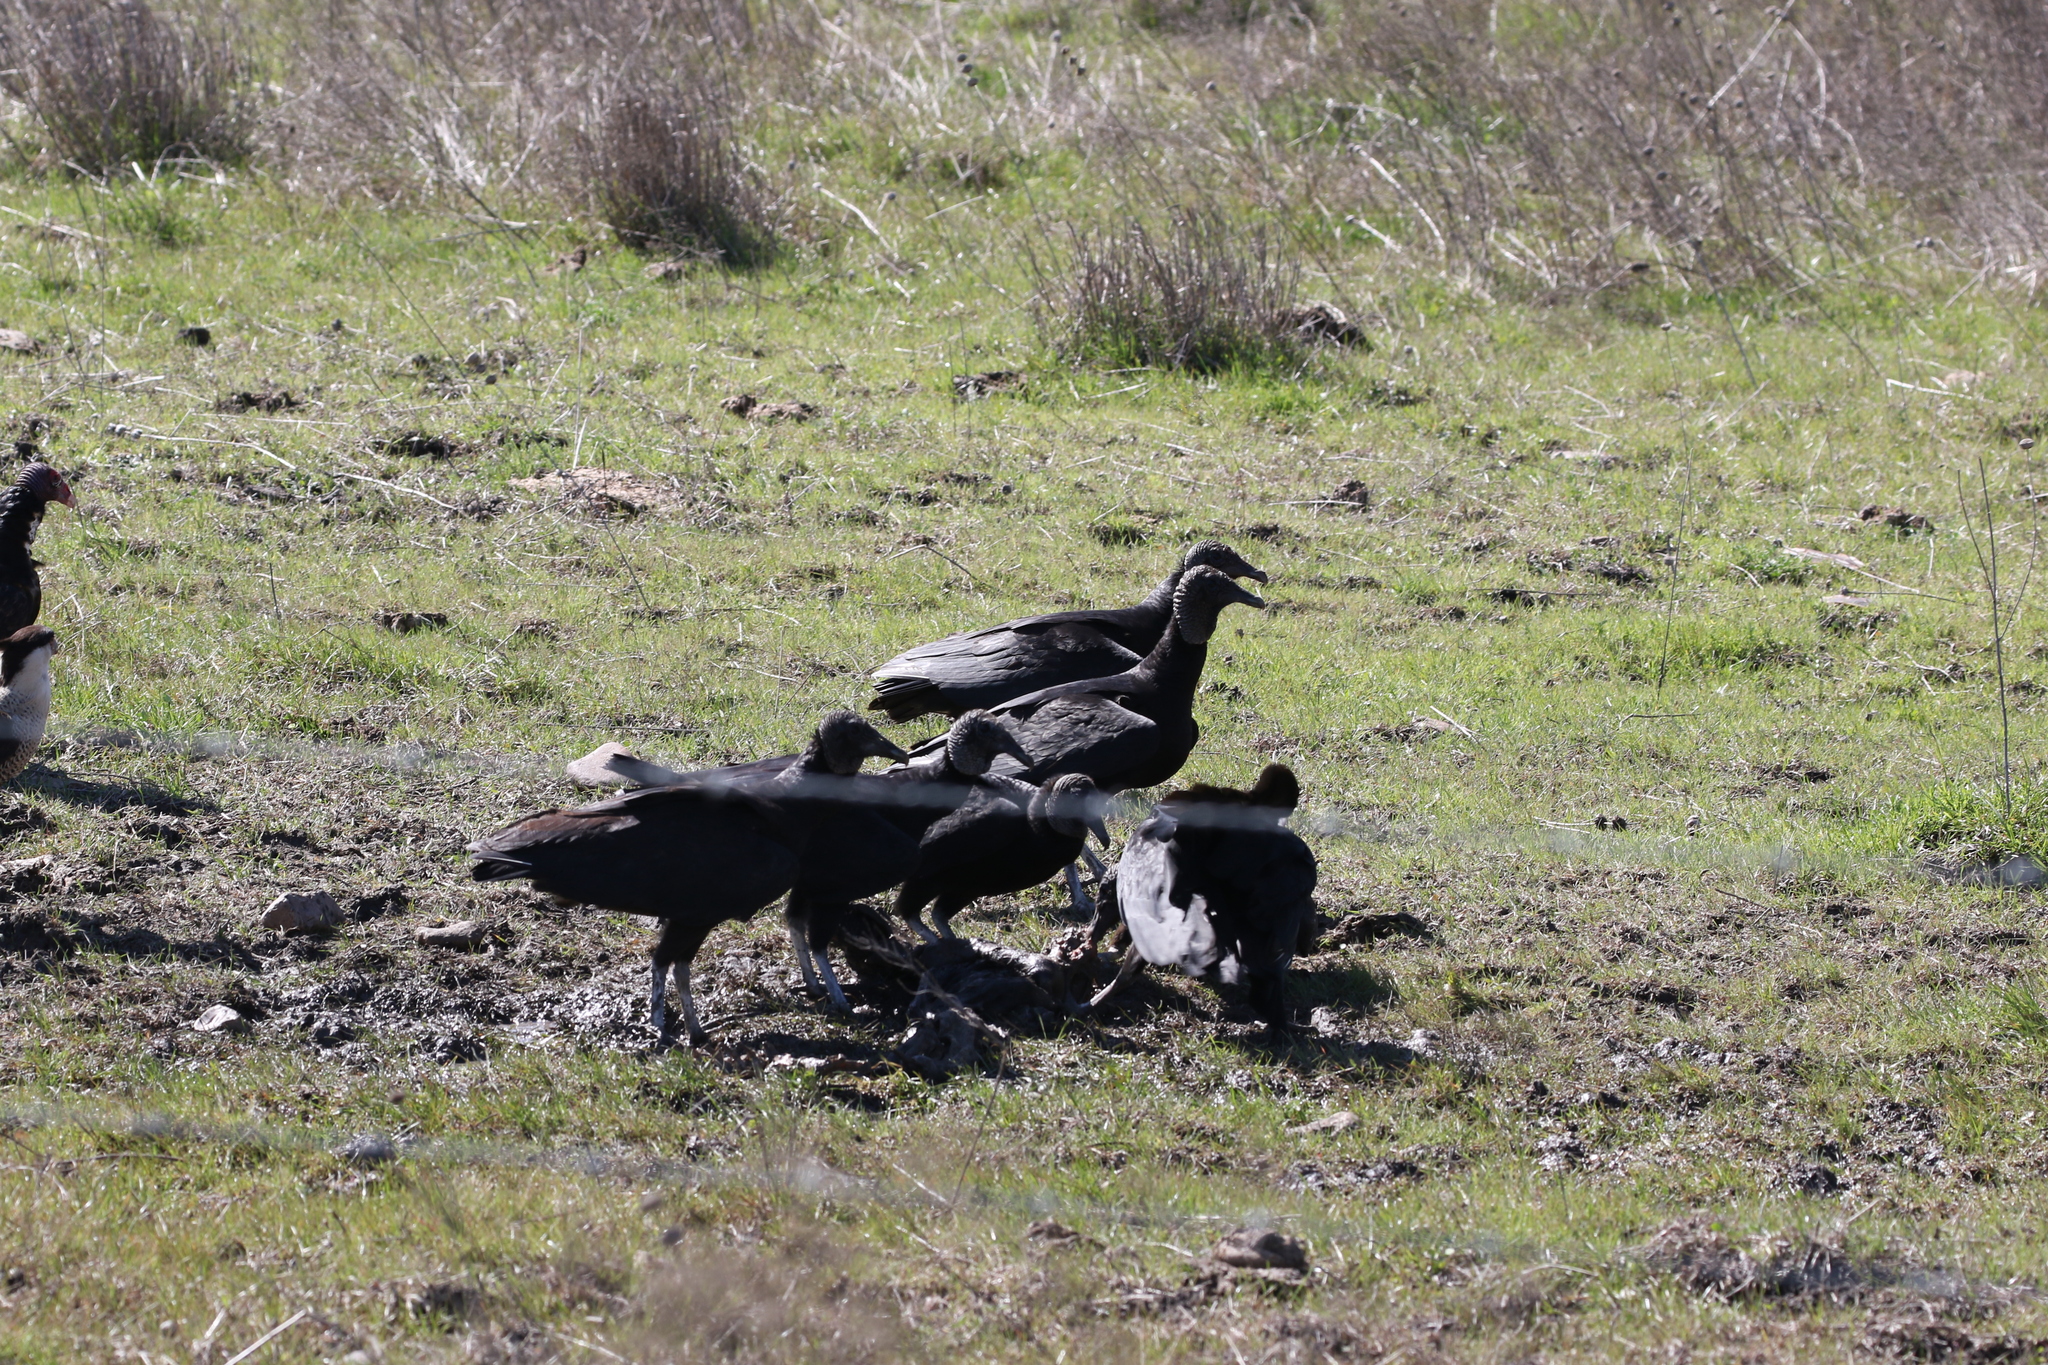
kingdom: Animalia
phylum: Chordata
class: Aves
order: Accipitriformes
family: Cathartidae
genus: Coragyps
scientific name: Coragyps atratus
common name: Black vulture
